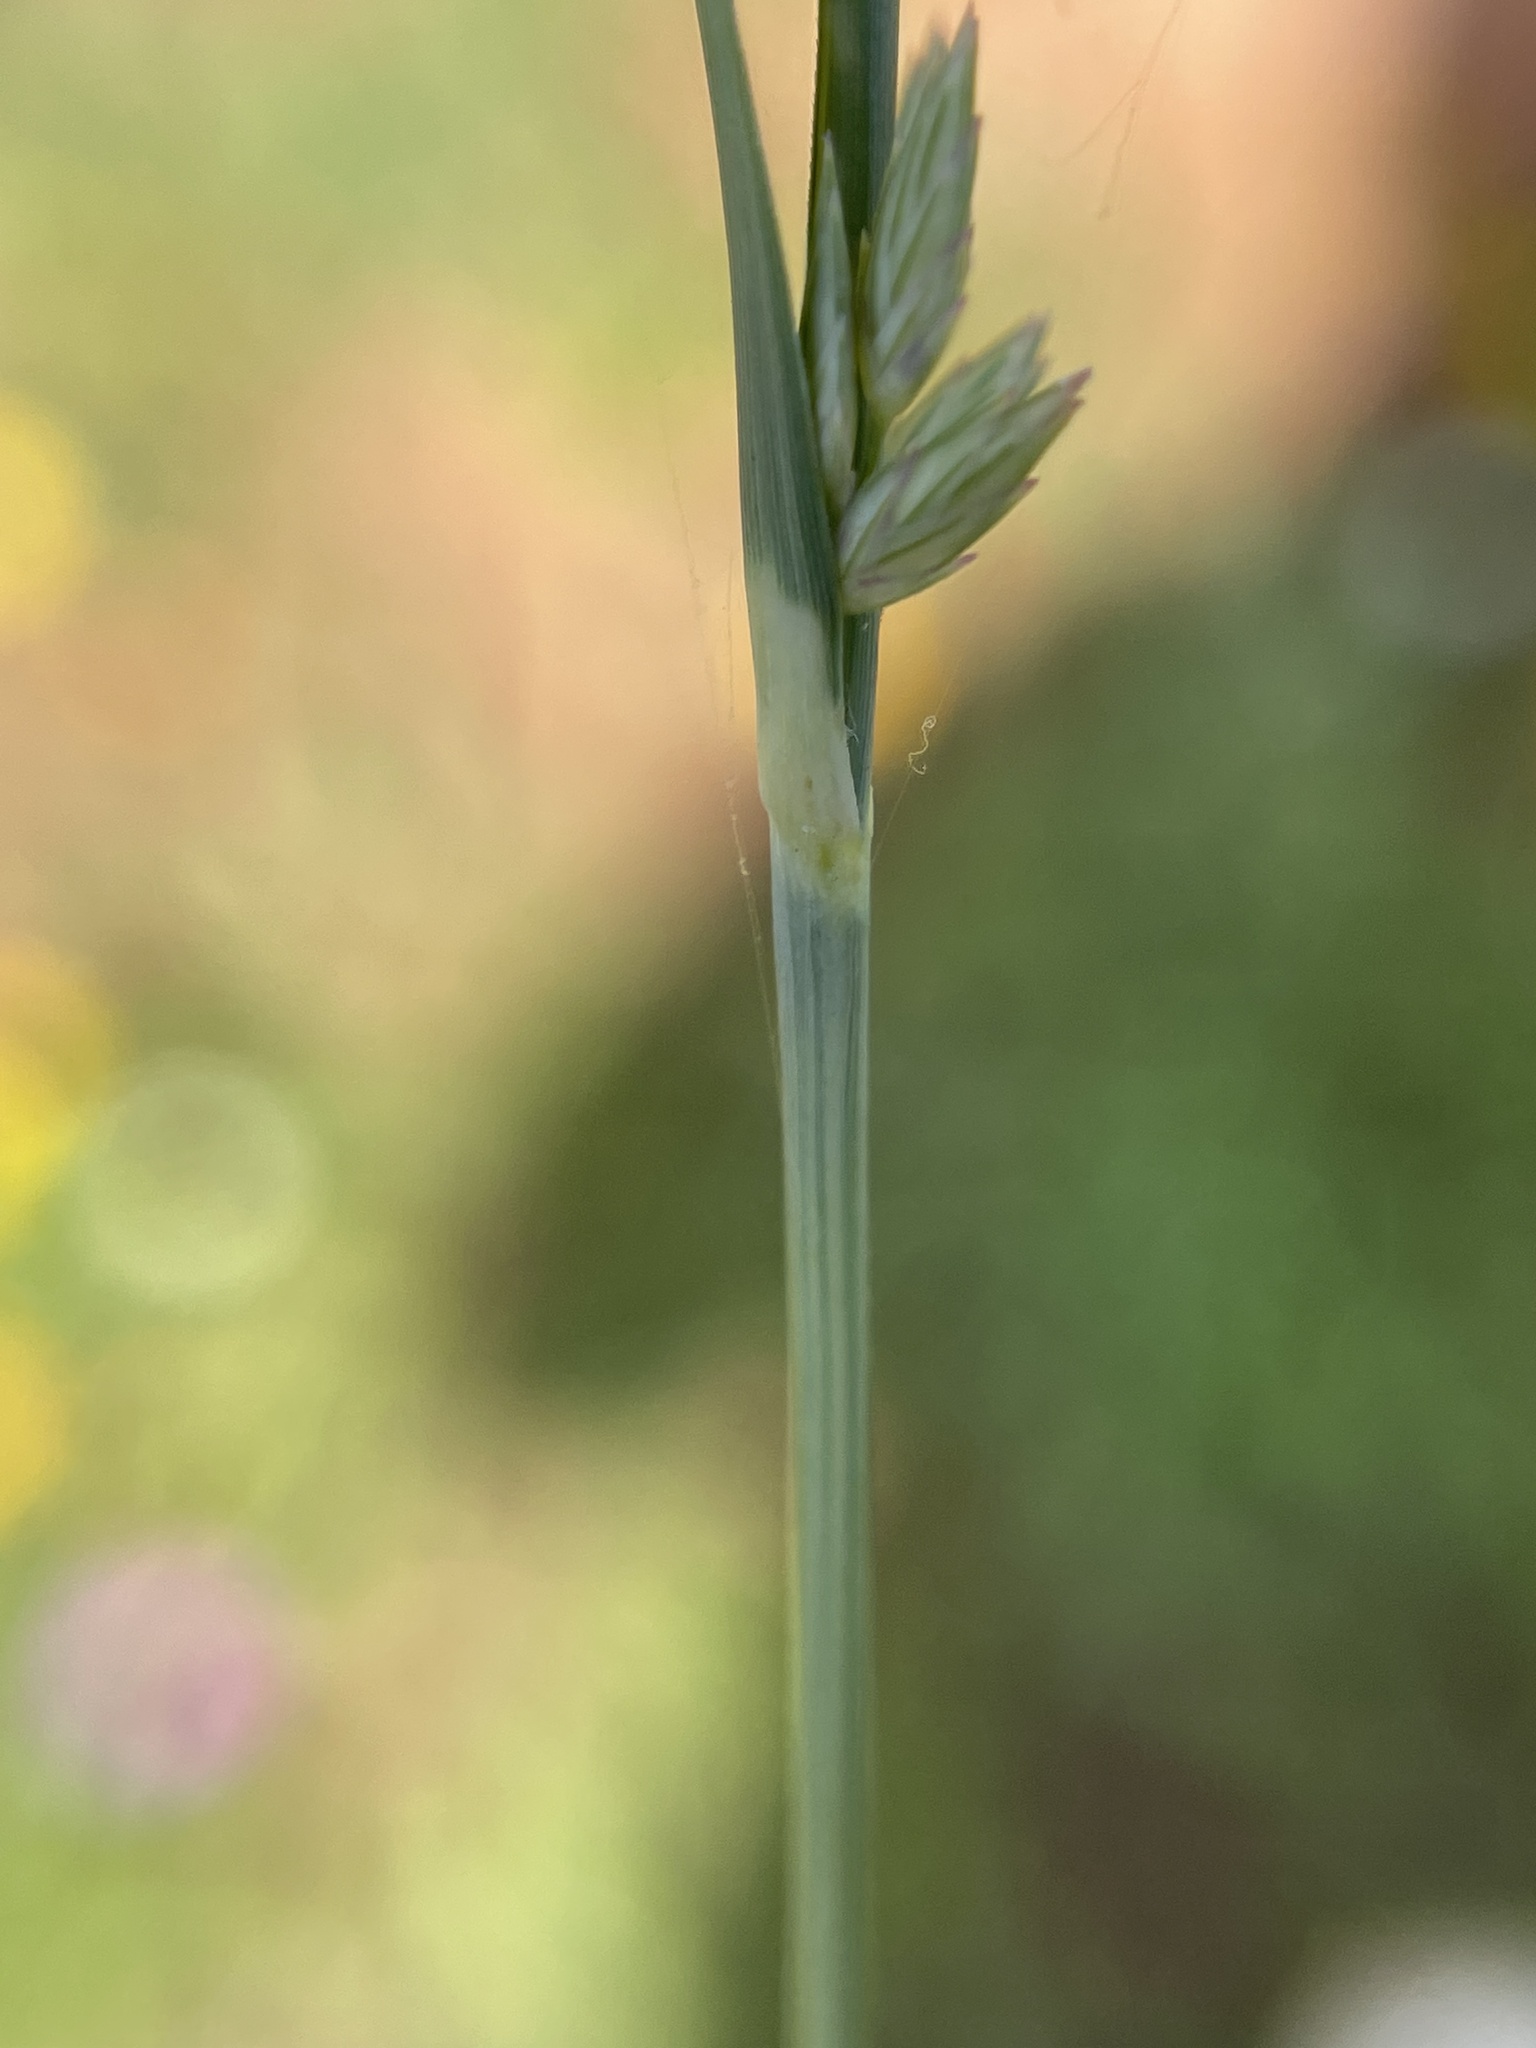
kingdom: Plantae
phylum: Tracheophyta
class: Liliopsida
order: Poales
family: Poaceae
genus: Eragrostis
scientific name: Eragrostis secundiflora
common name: Red love grass
